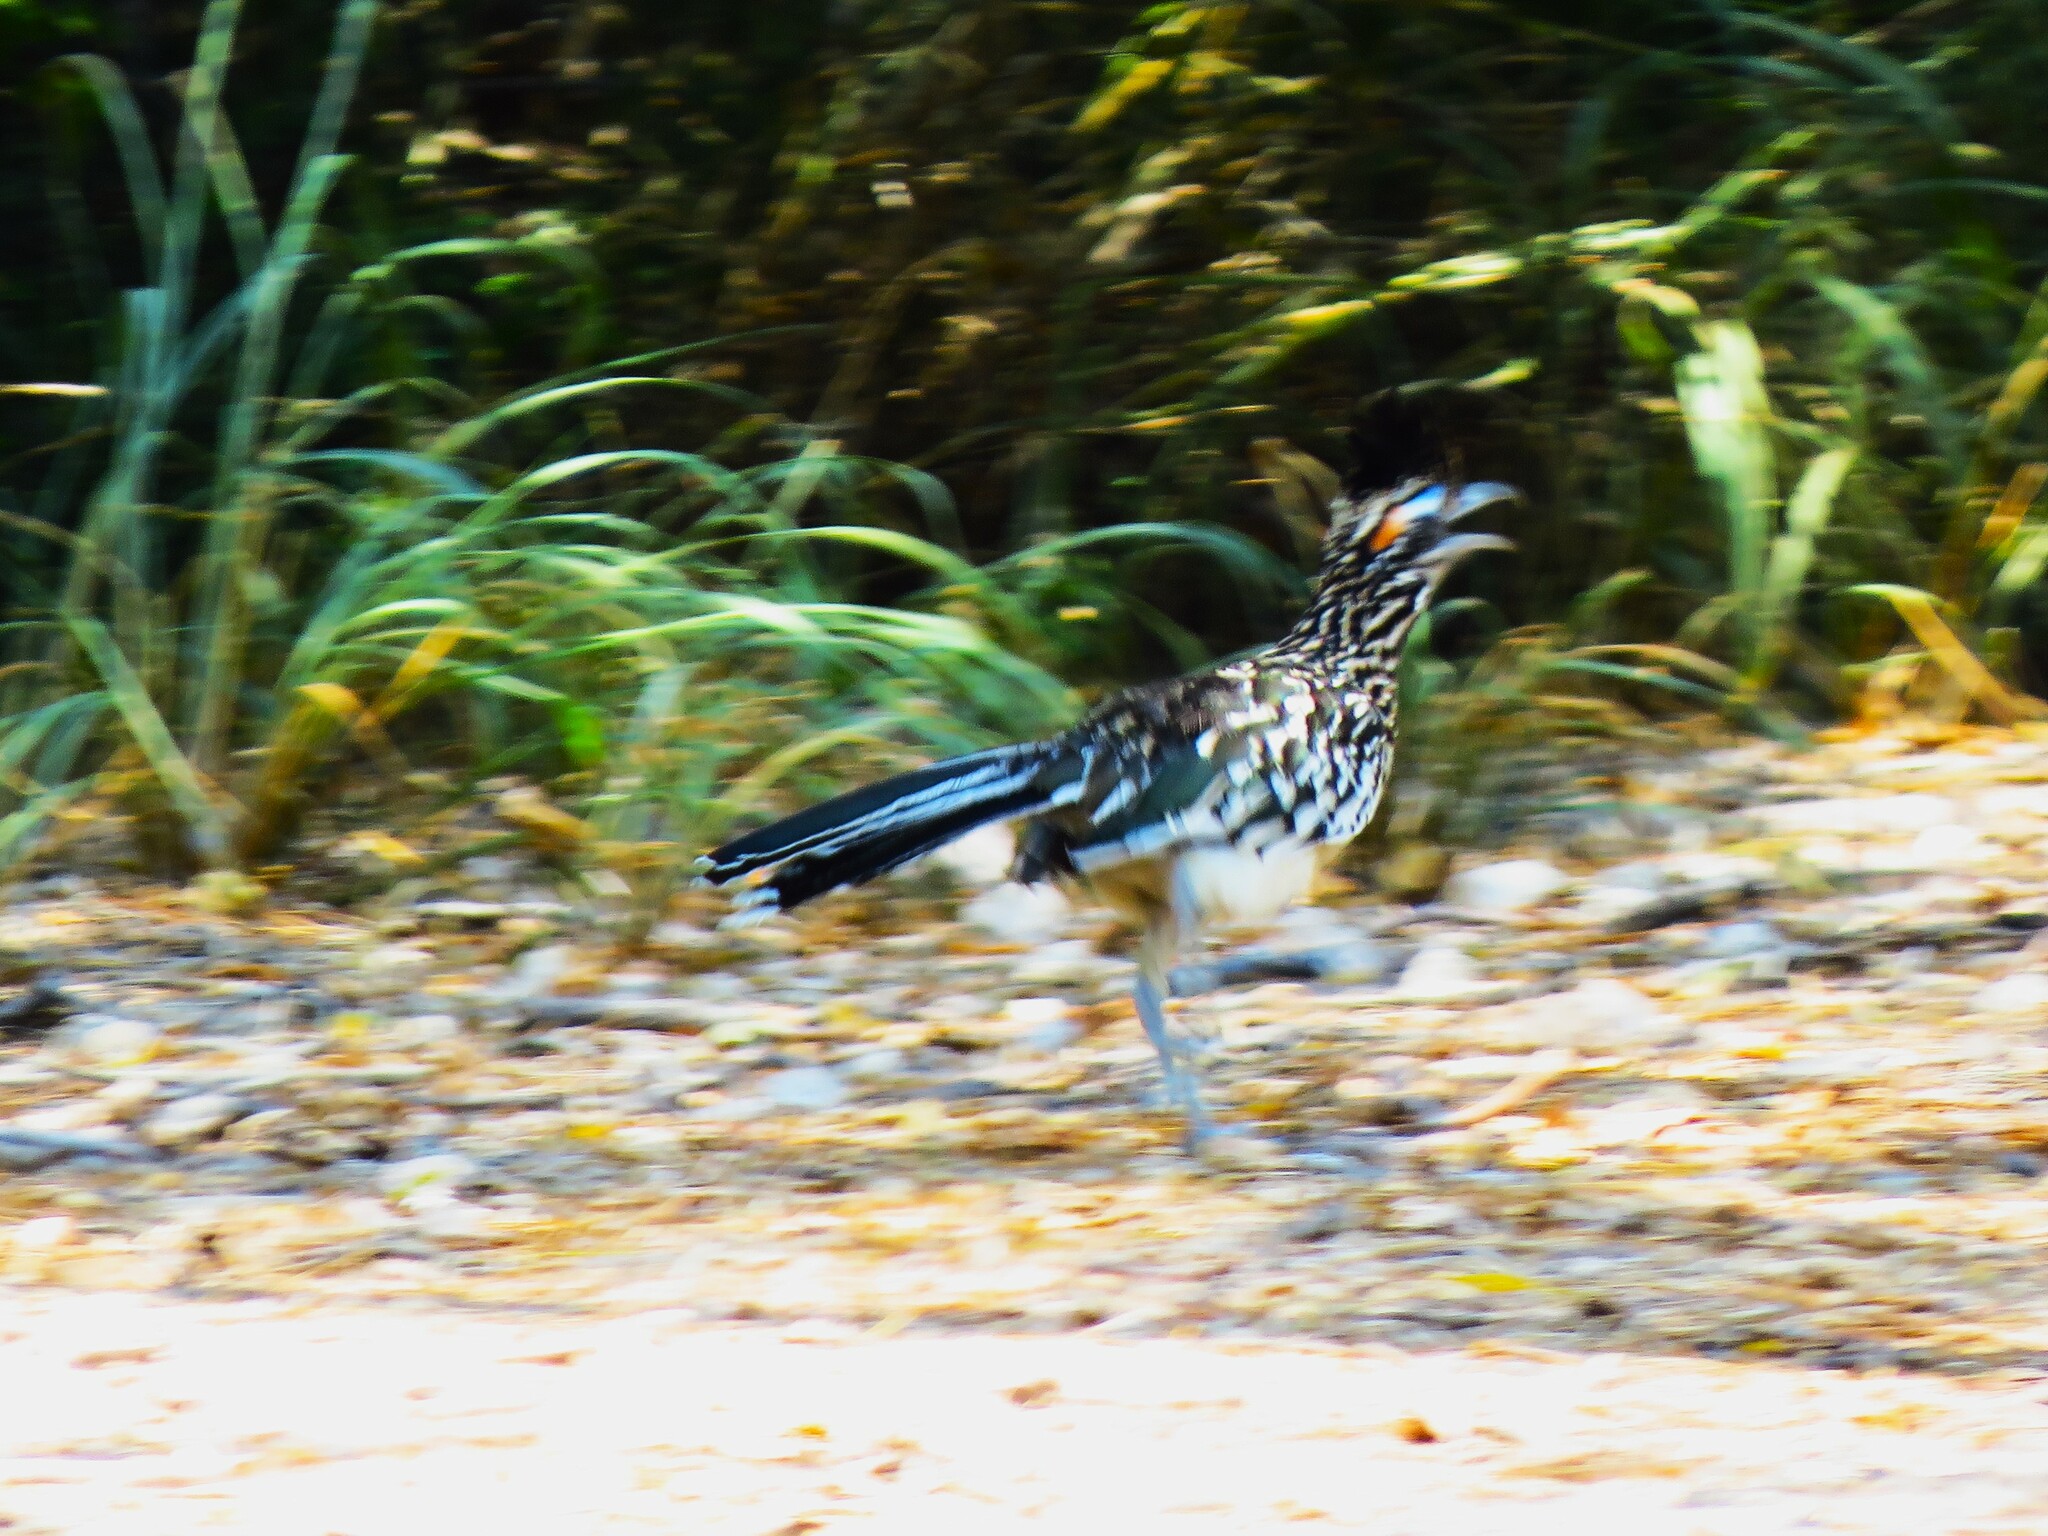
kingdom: Animalia
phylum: Chordata
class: Aves
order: Cuculiformes
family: Cuculidae
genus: Geococcyx
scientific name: Geococcyx californianus
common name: Greater roadrunner
